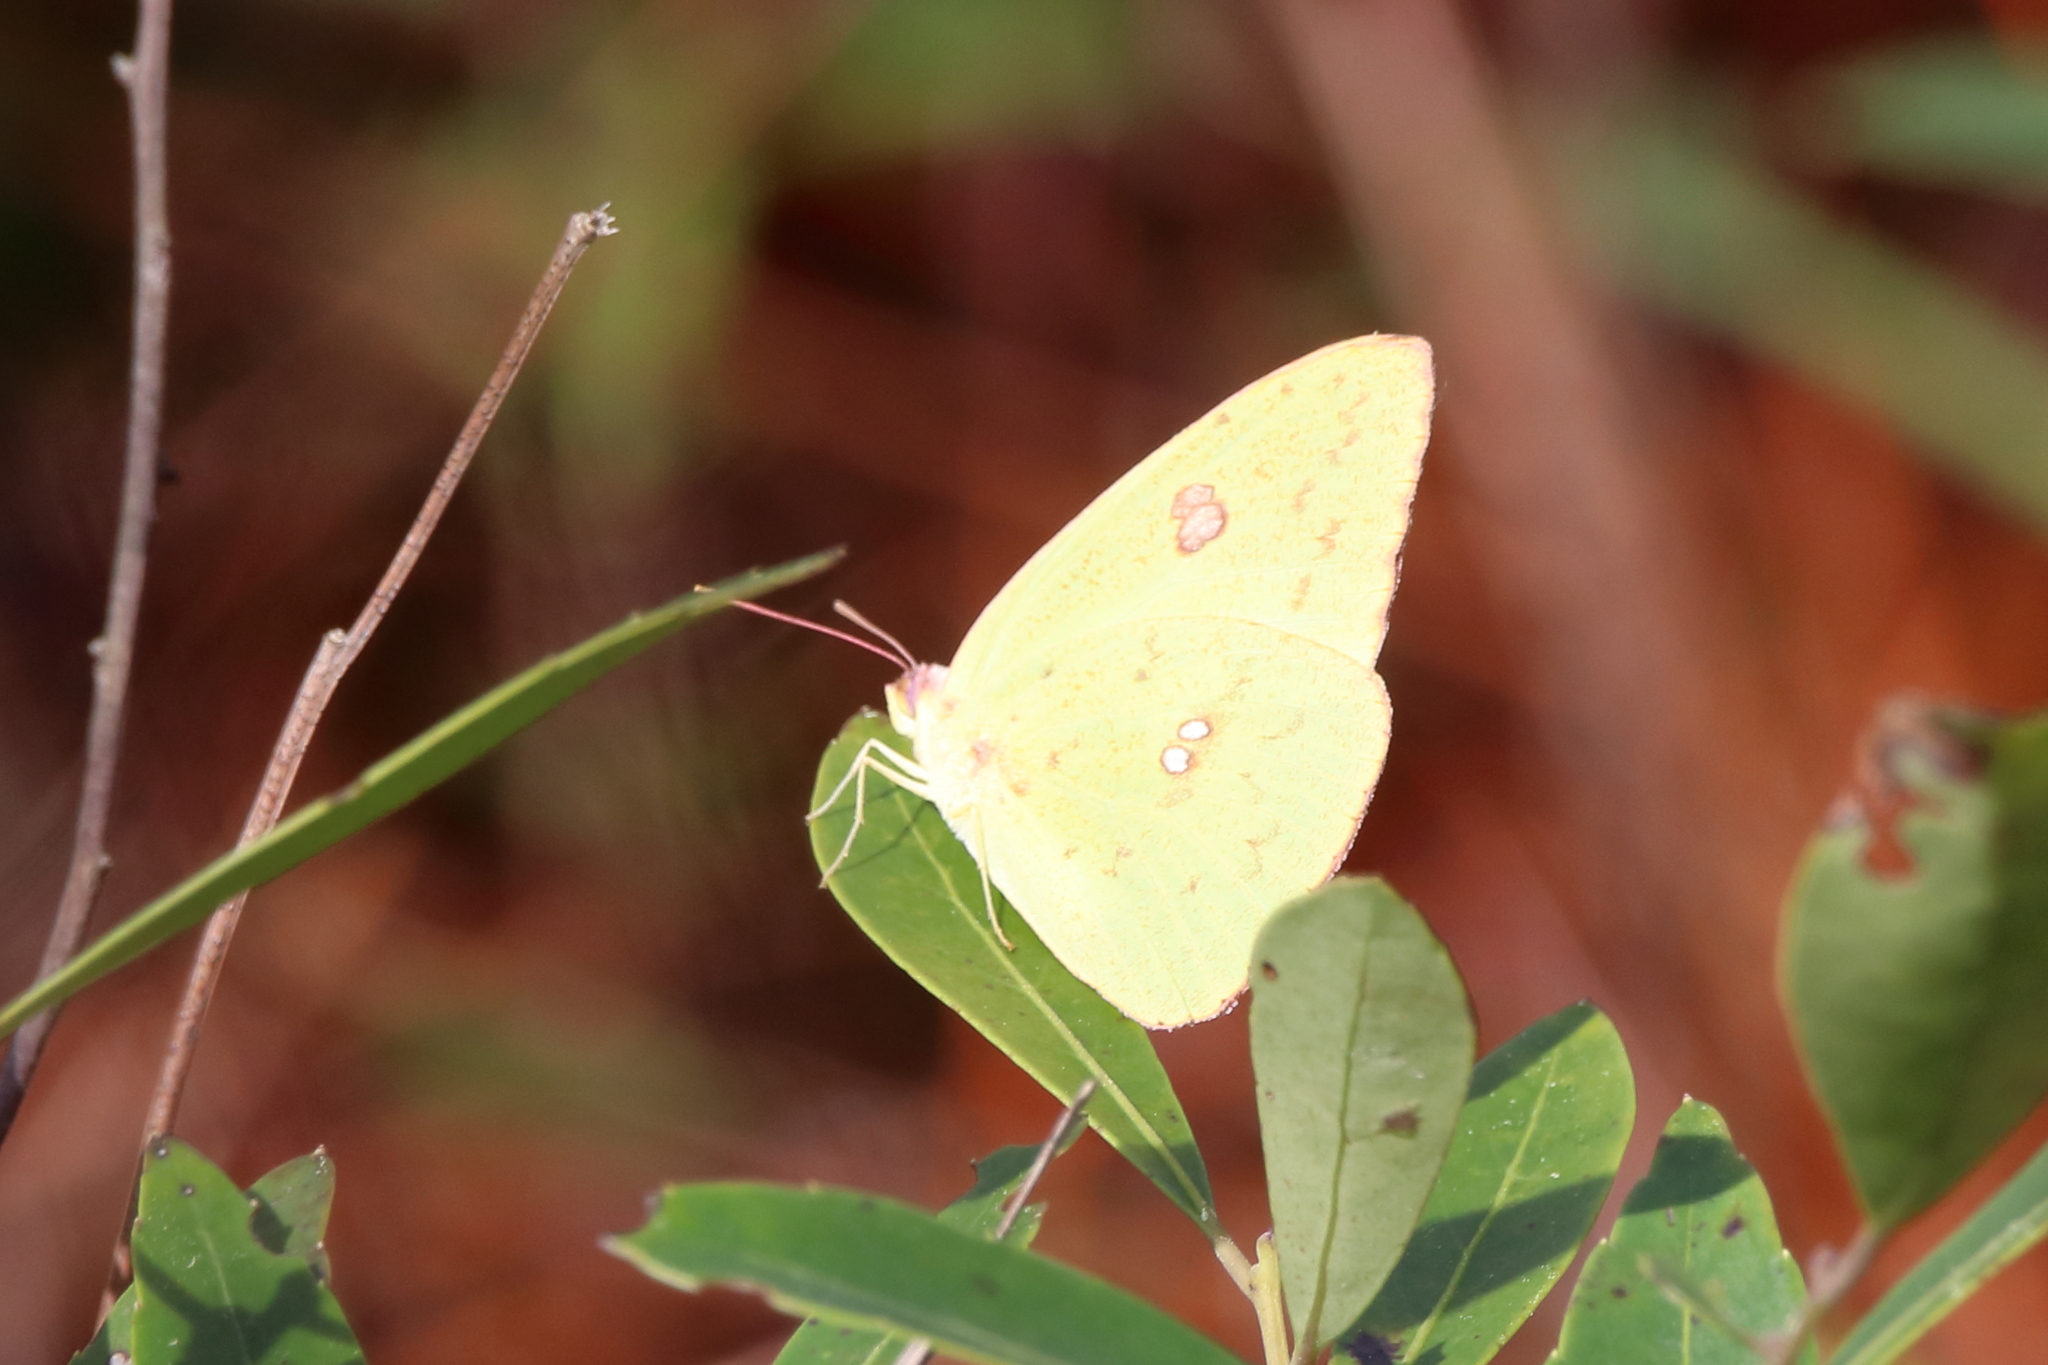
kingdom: Animalia
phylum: Arthropoda
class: Insecta
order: Lepidoptera
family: Pieridae
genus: Phoebis
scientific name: Phoebis sennae
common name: Cloudless sulphur
